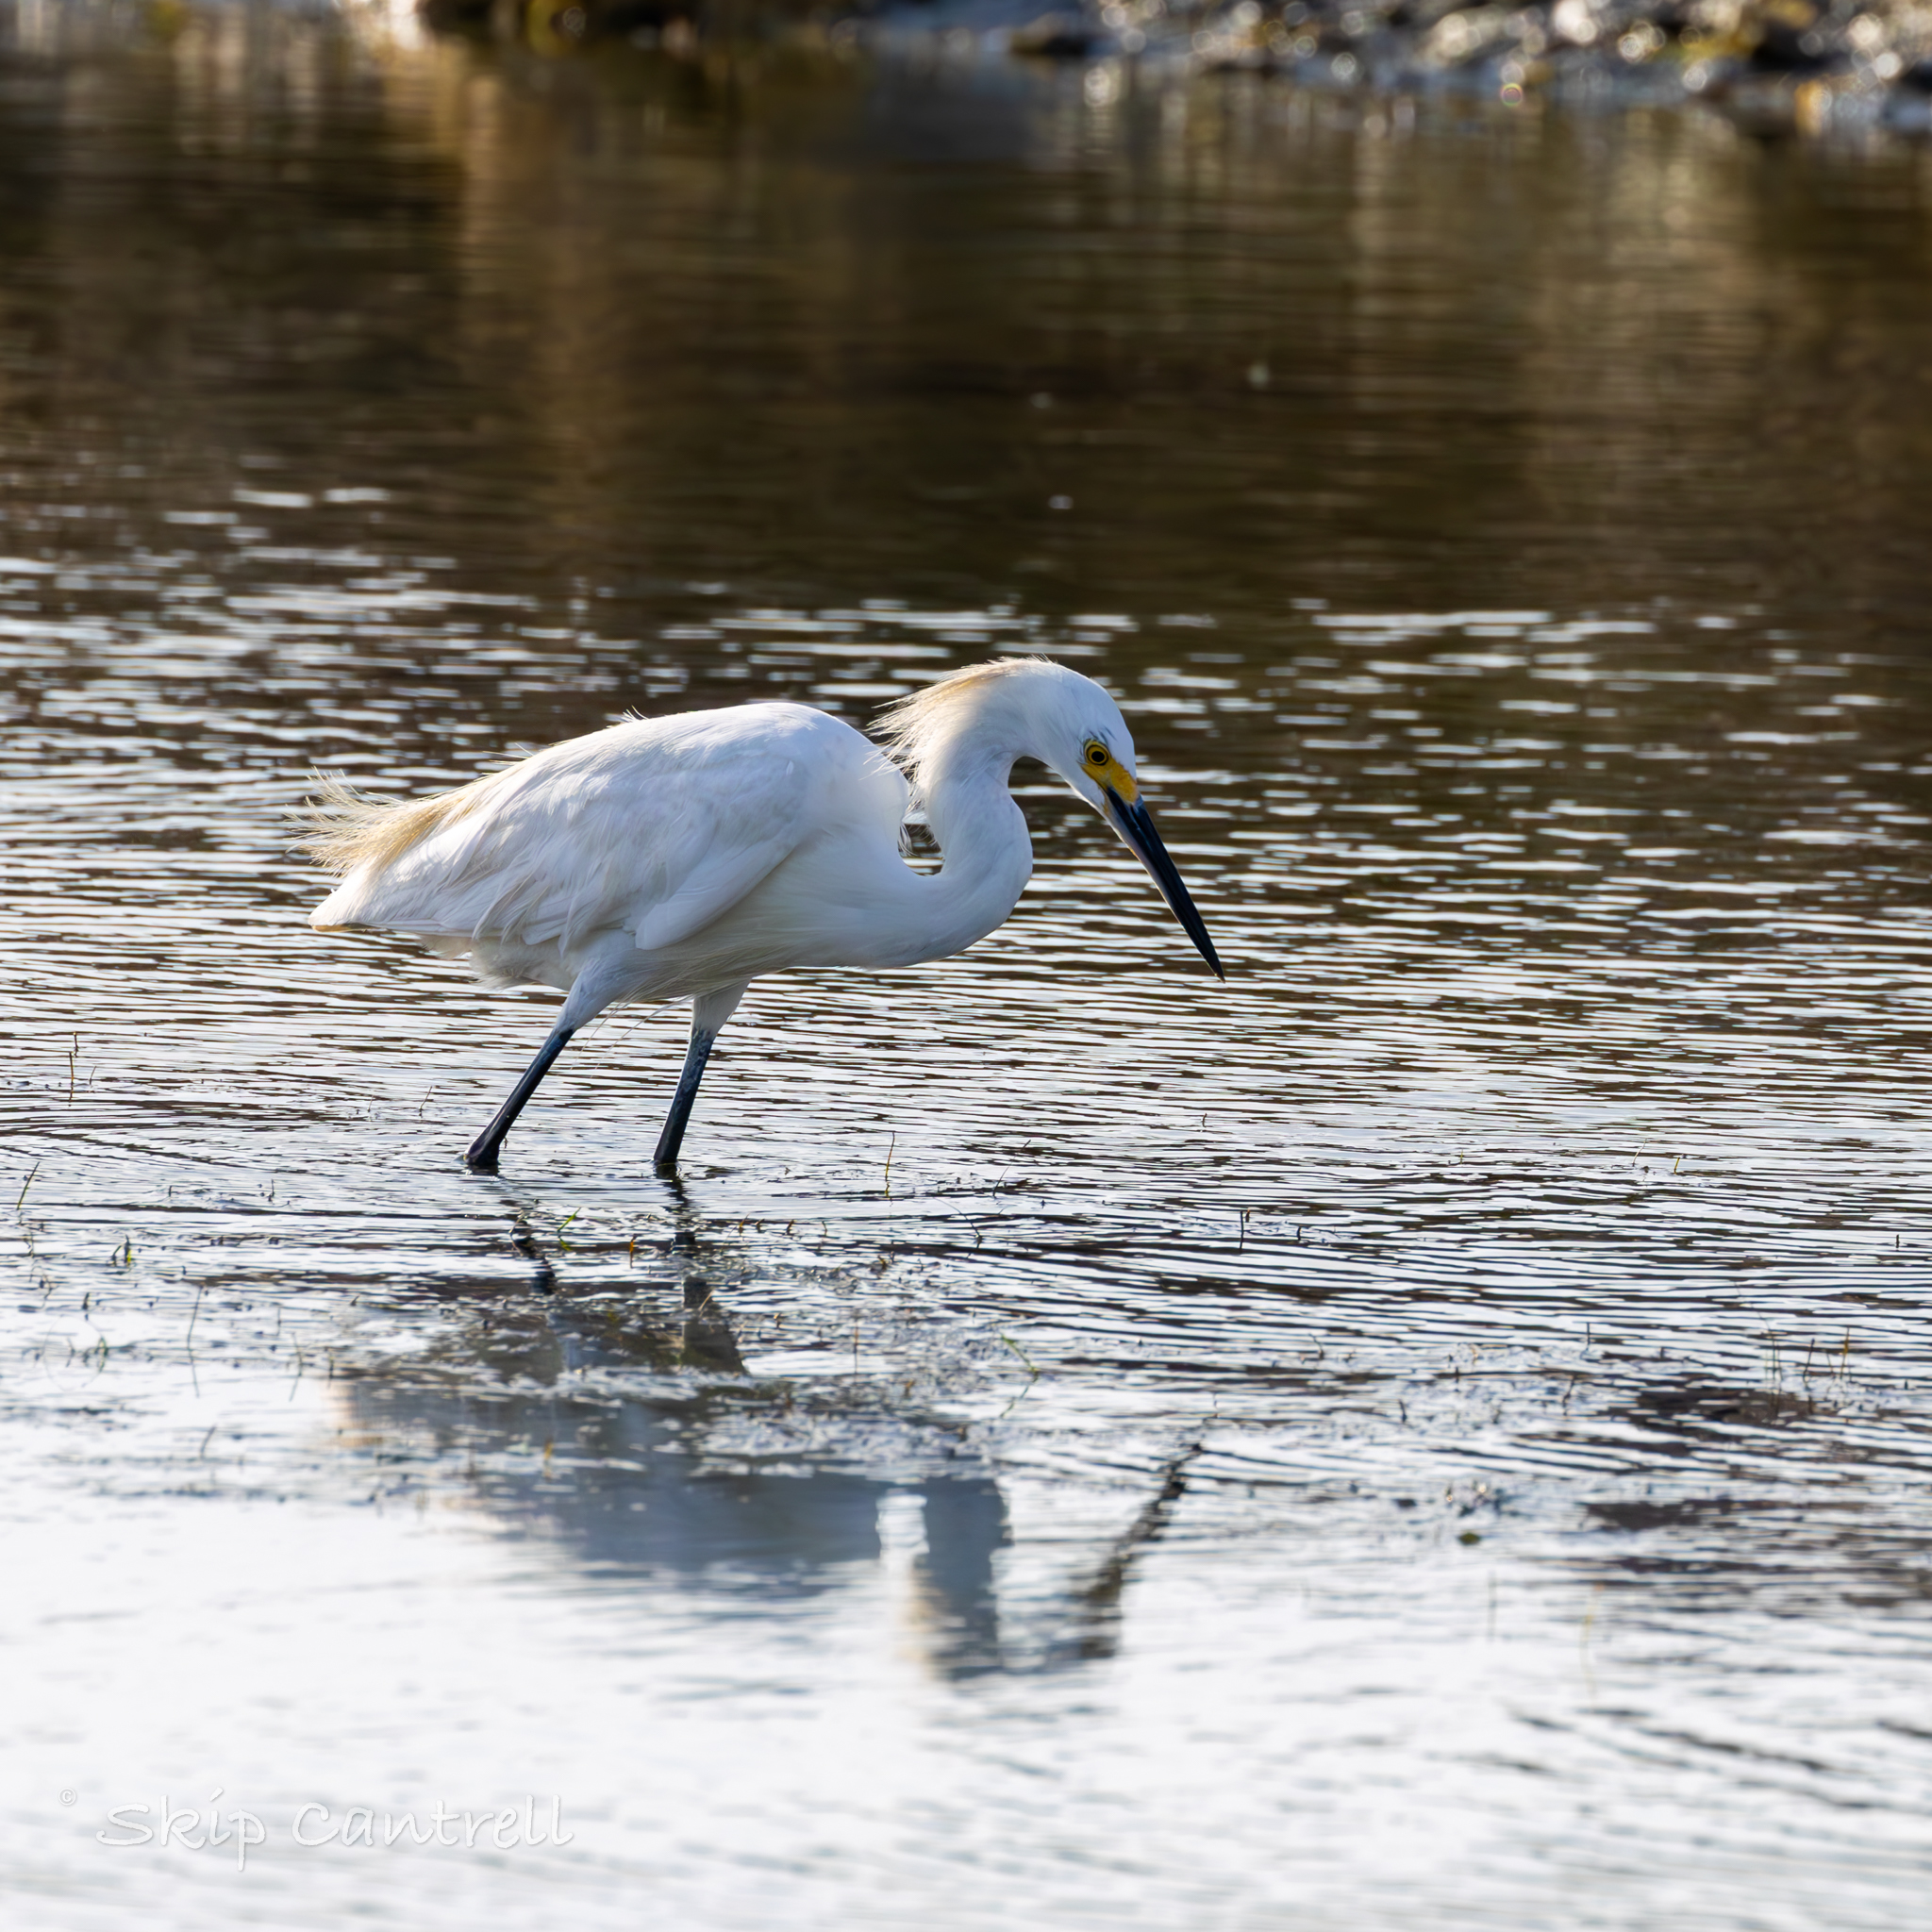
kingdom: Animalia
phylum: Chordata
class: Aves
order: Pelecaniformes
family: Ardeidae
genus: Egretta
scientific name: Egretta thula
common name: Snowy egret
